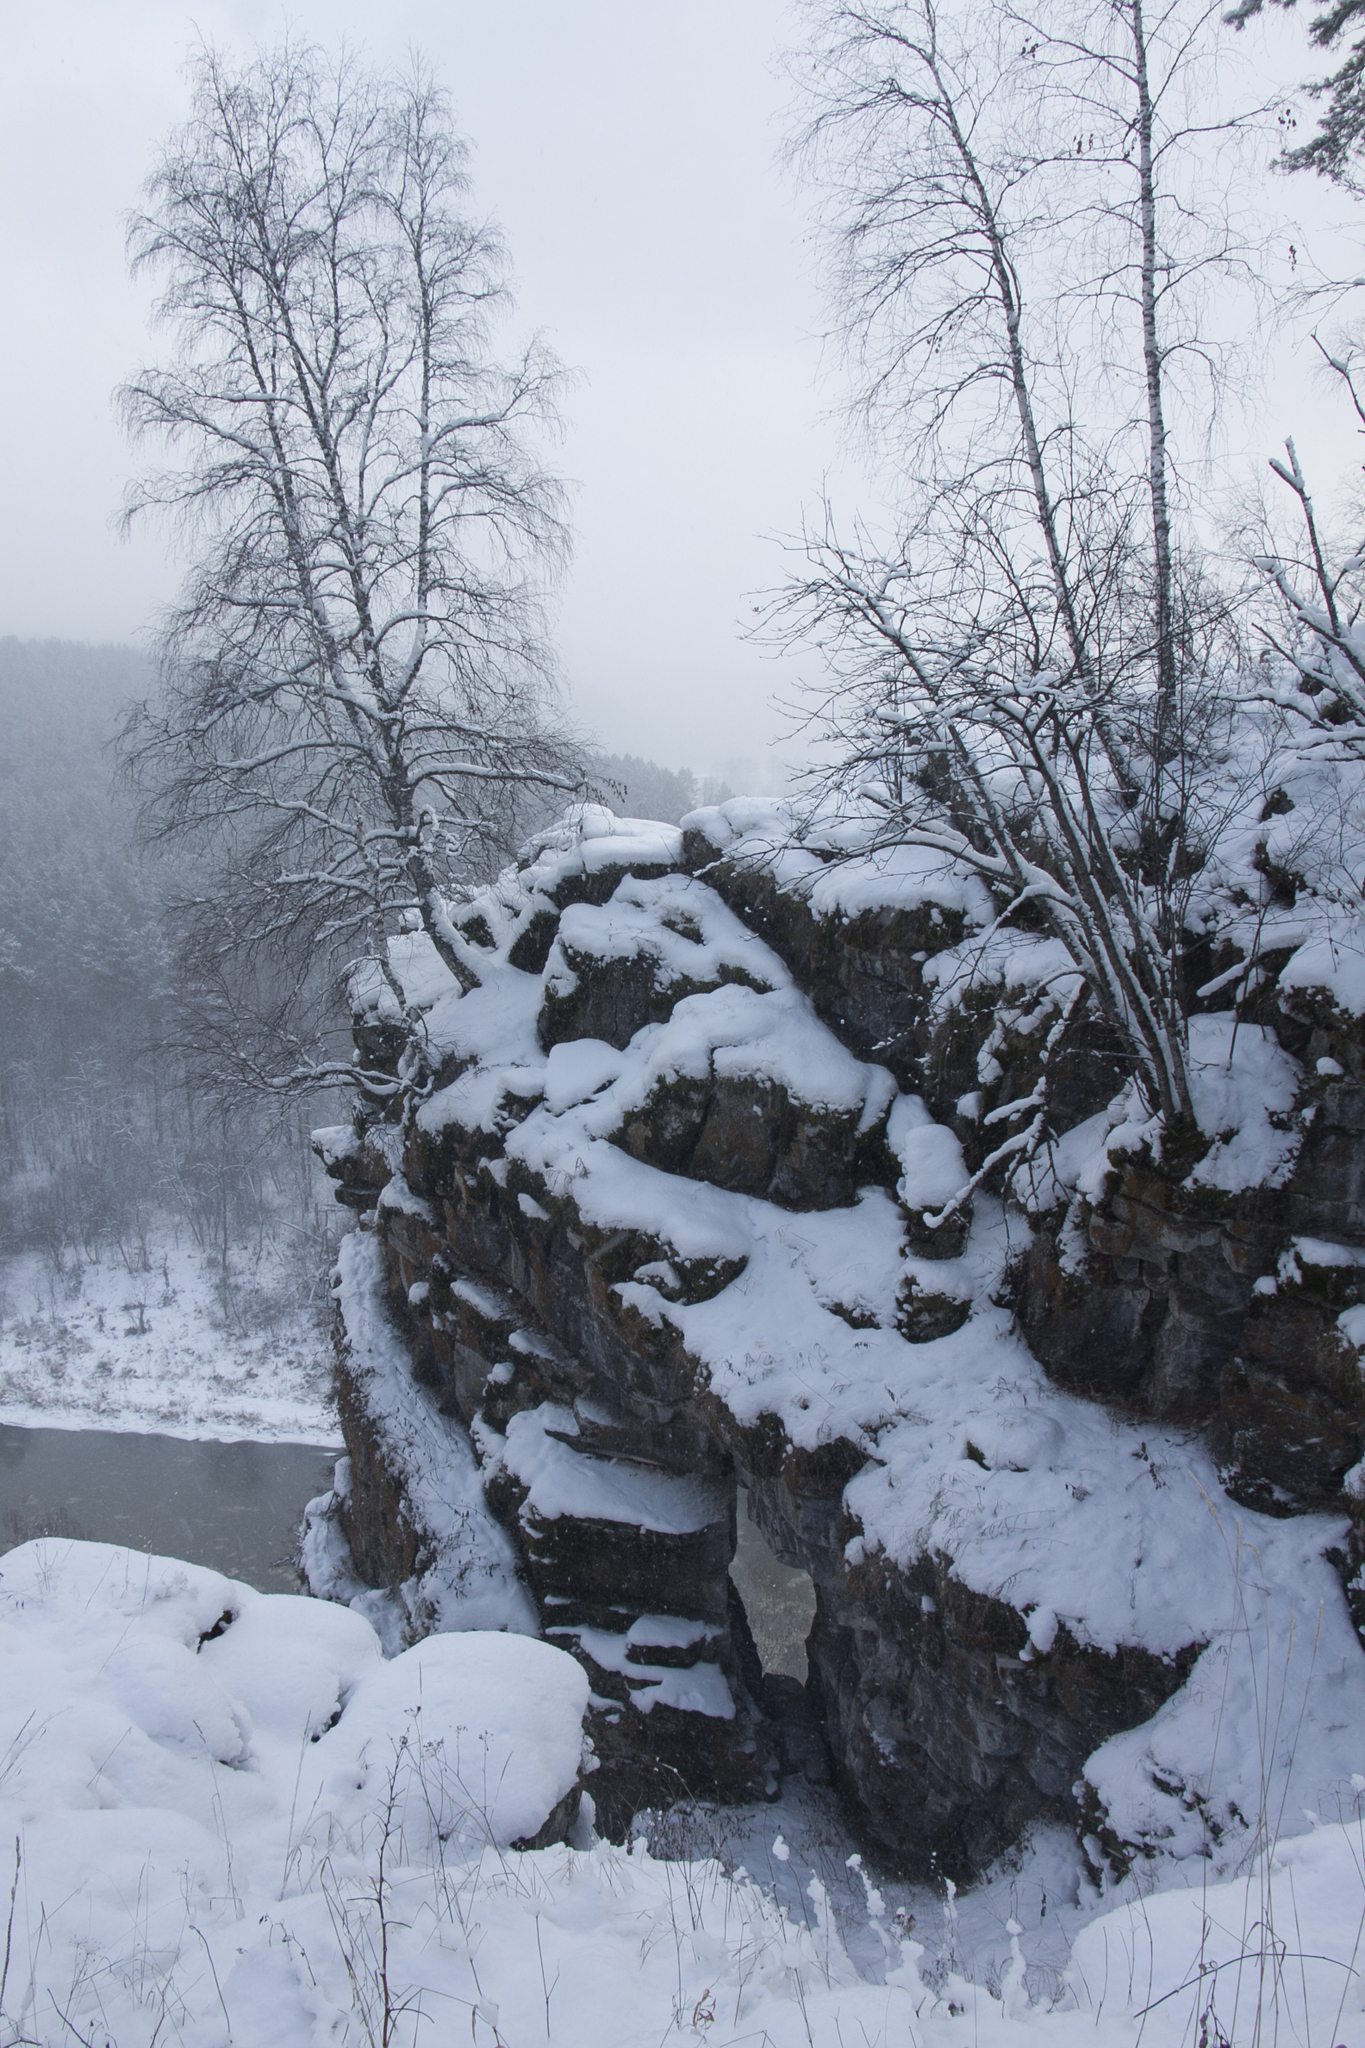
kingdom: Plantae
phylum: Tracheophyta
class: Magnoliopsida
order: Fagales
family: Betulaceae
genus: Betula
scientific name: Betula pubescens
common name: Downy birch
